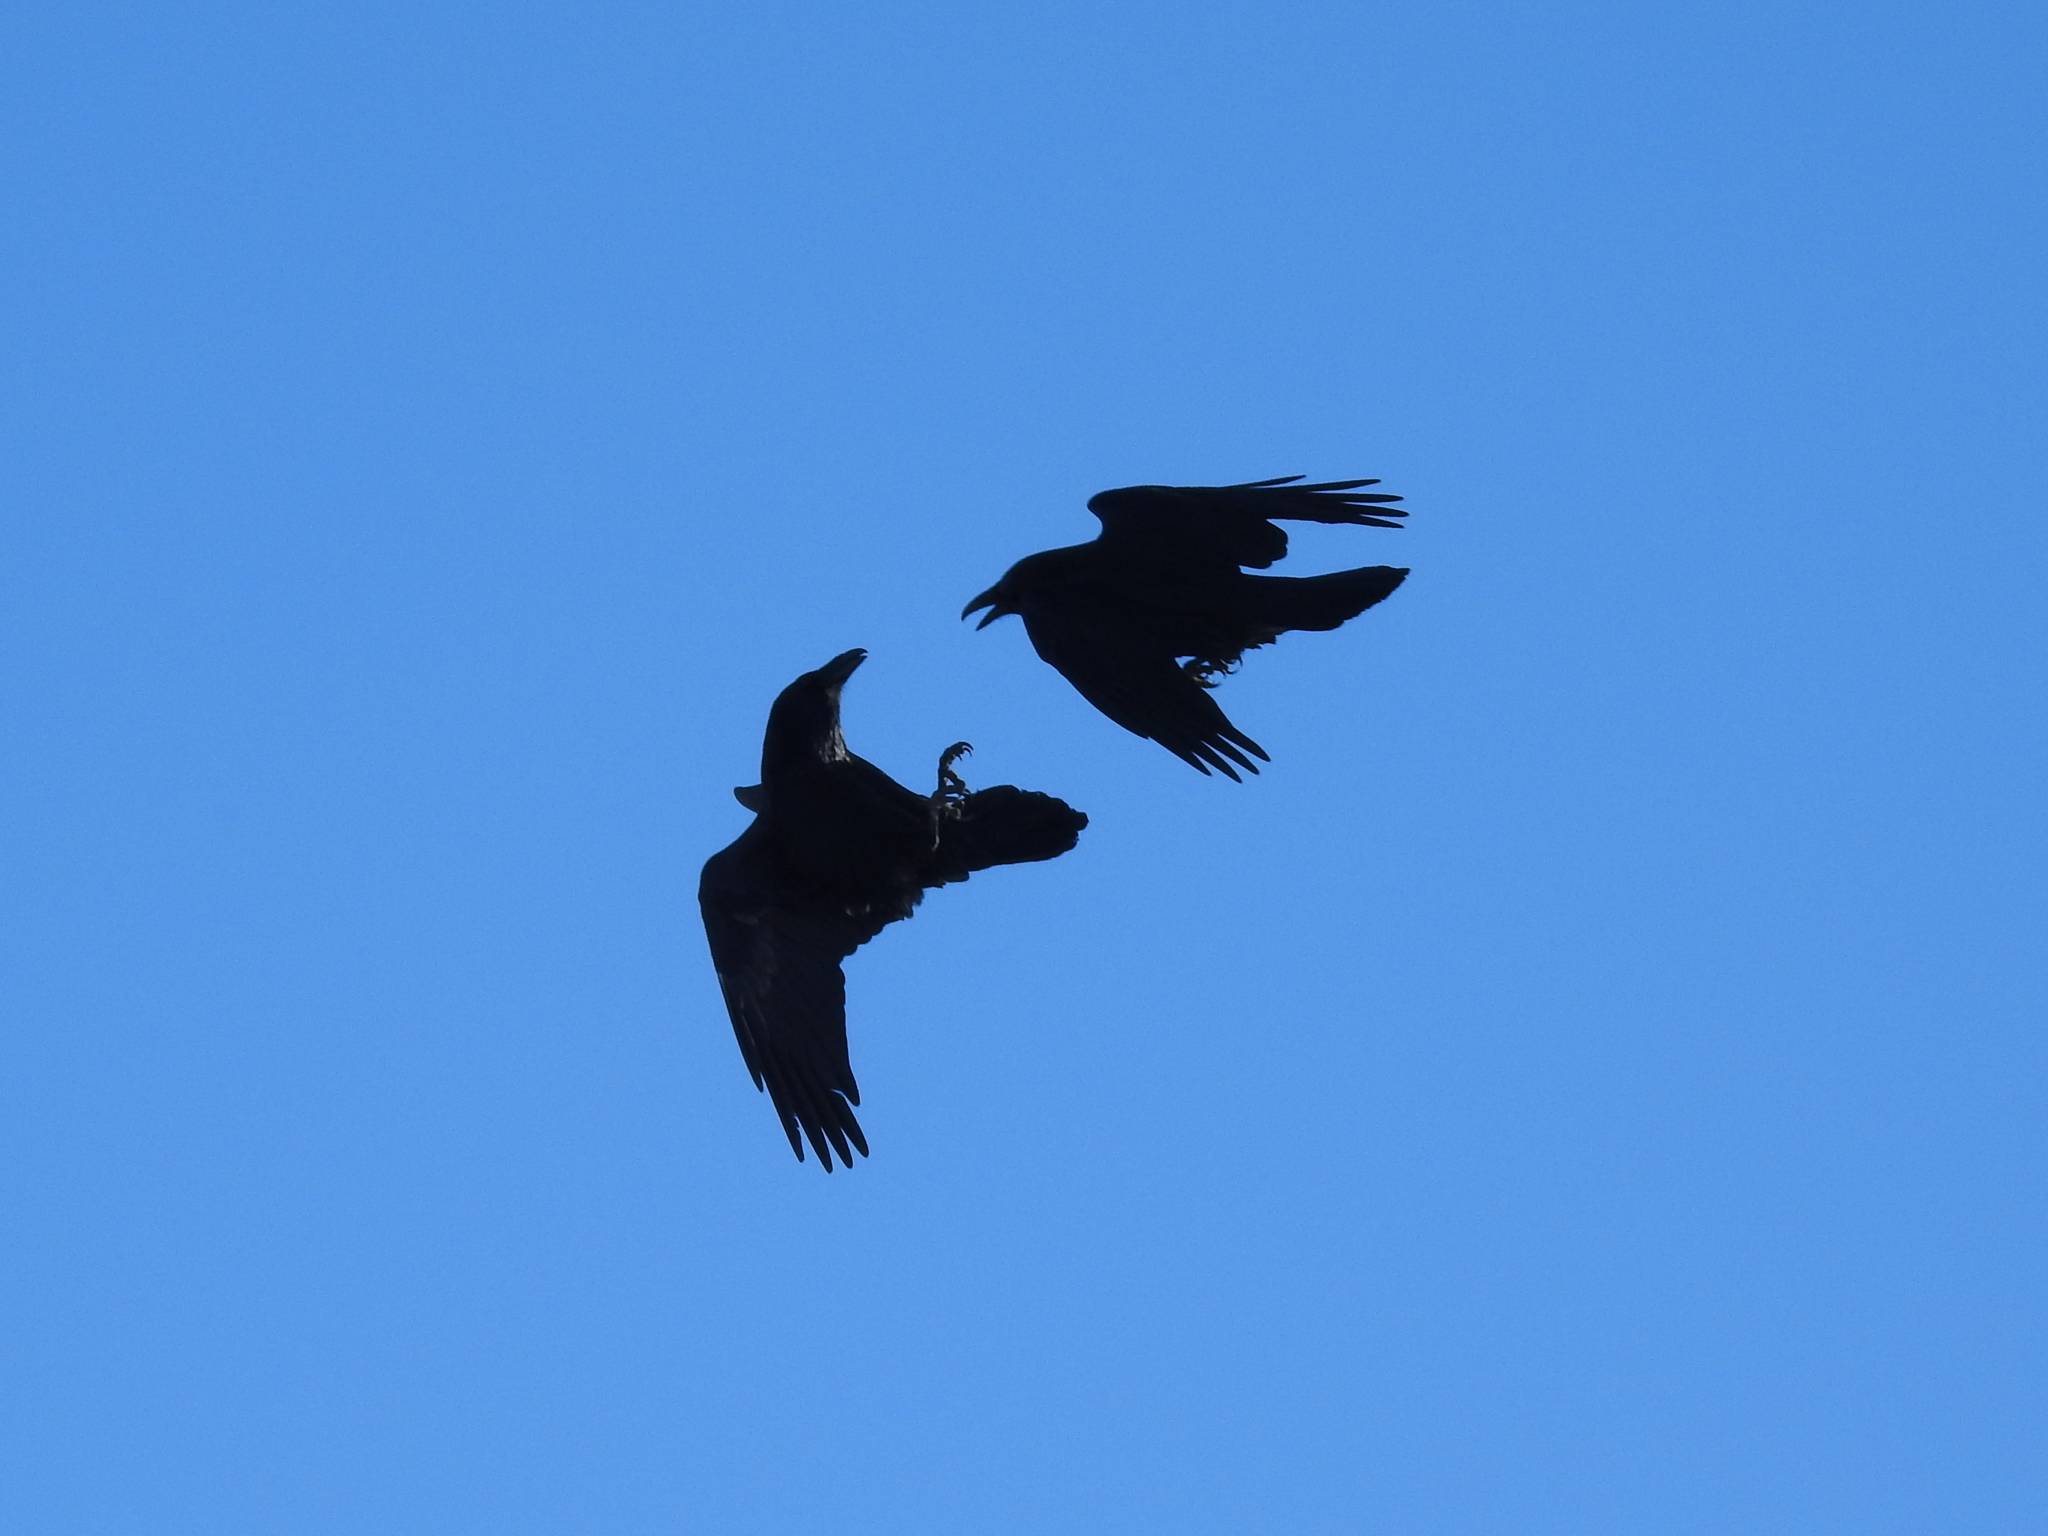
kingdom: Animalia
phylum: Chordata
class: Aves
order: Passeriformes
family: Corvidae
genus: Corvus
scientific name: Corvus corax
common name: Common raven
